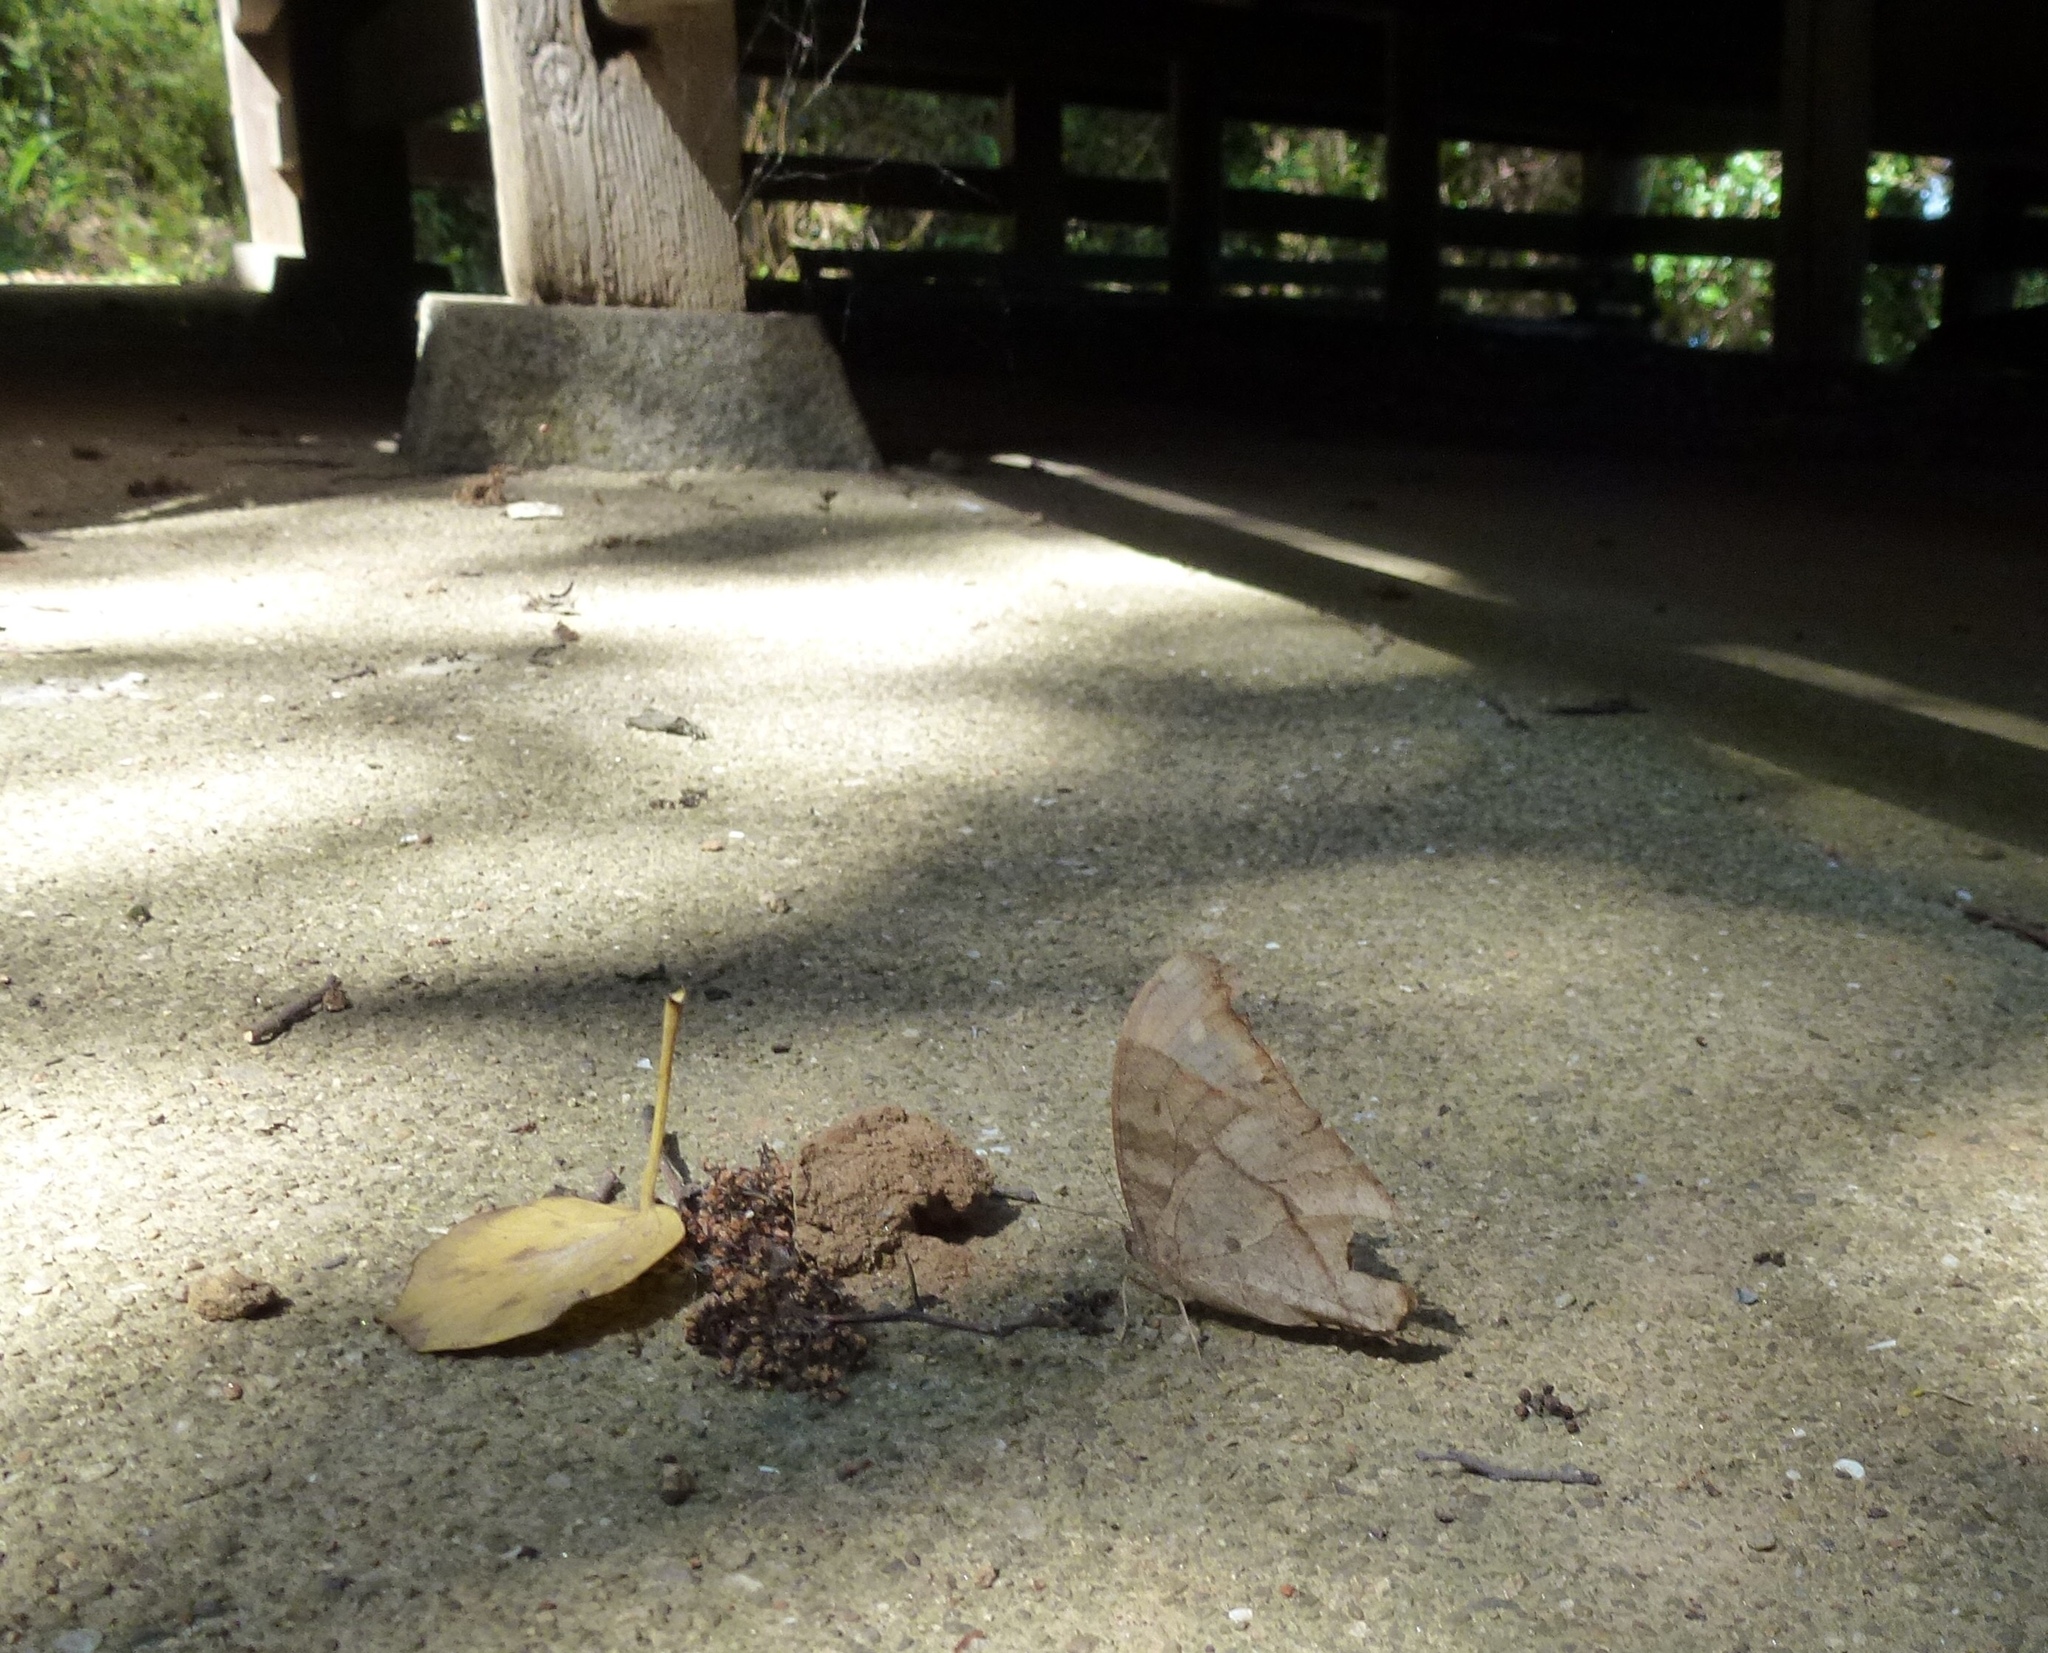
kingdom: Animalia
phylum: Arthropoda
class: Insecta
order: Lepidoptera
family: Nymphalidae
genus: Melanitis
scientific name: Melanitis phedima
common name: Dark evening brown
